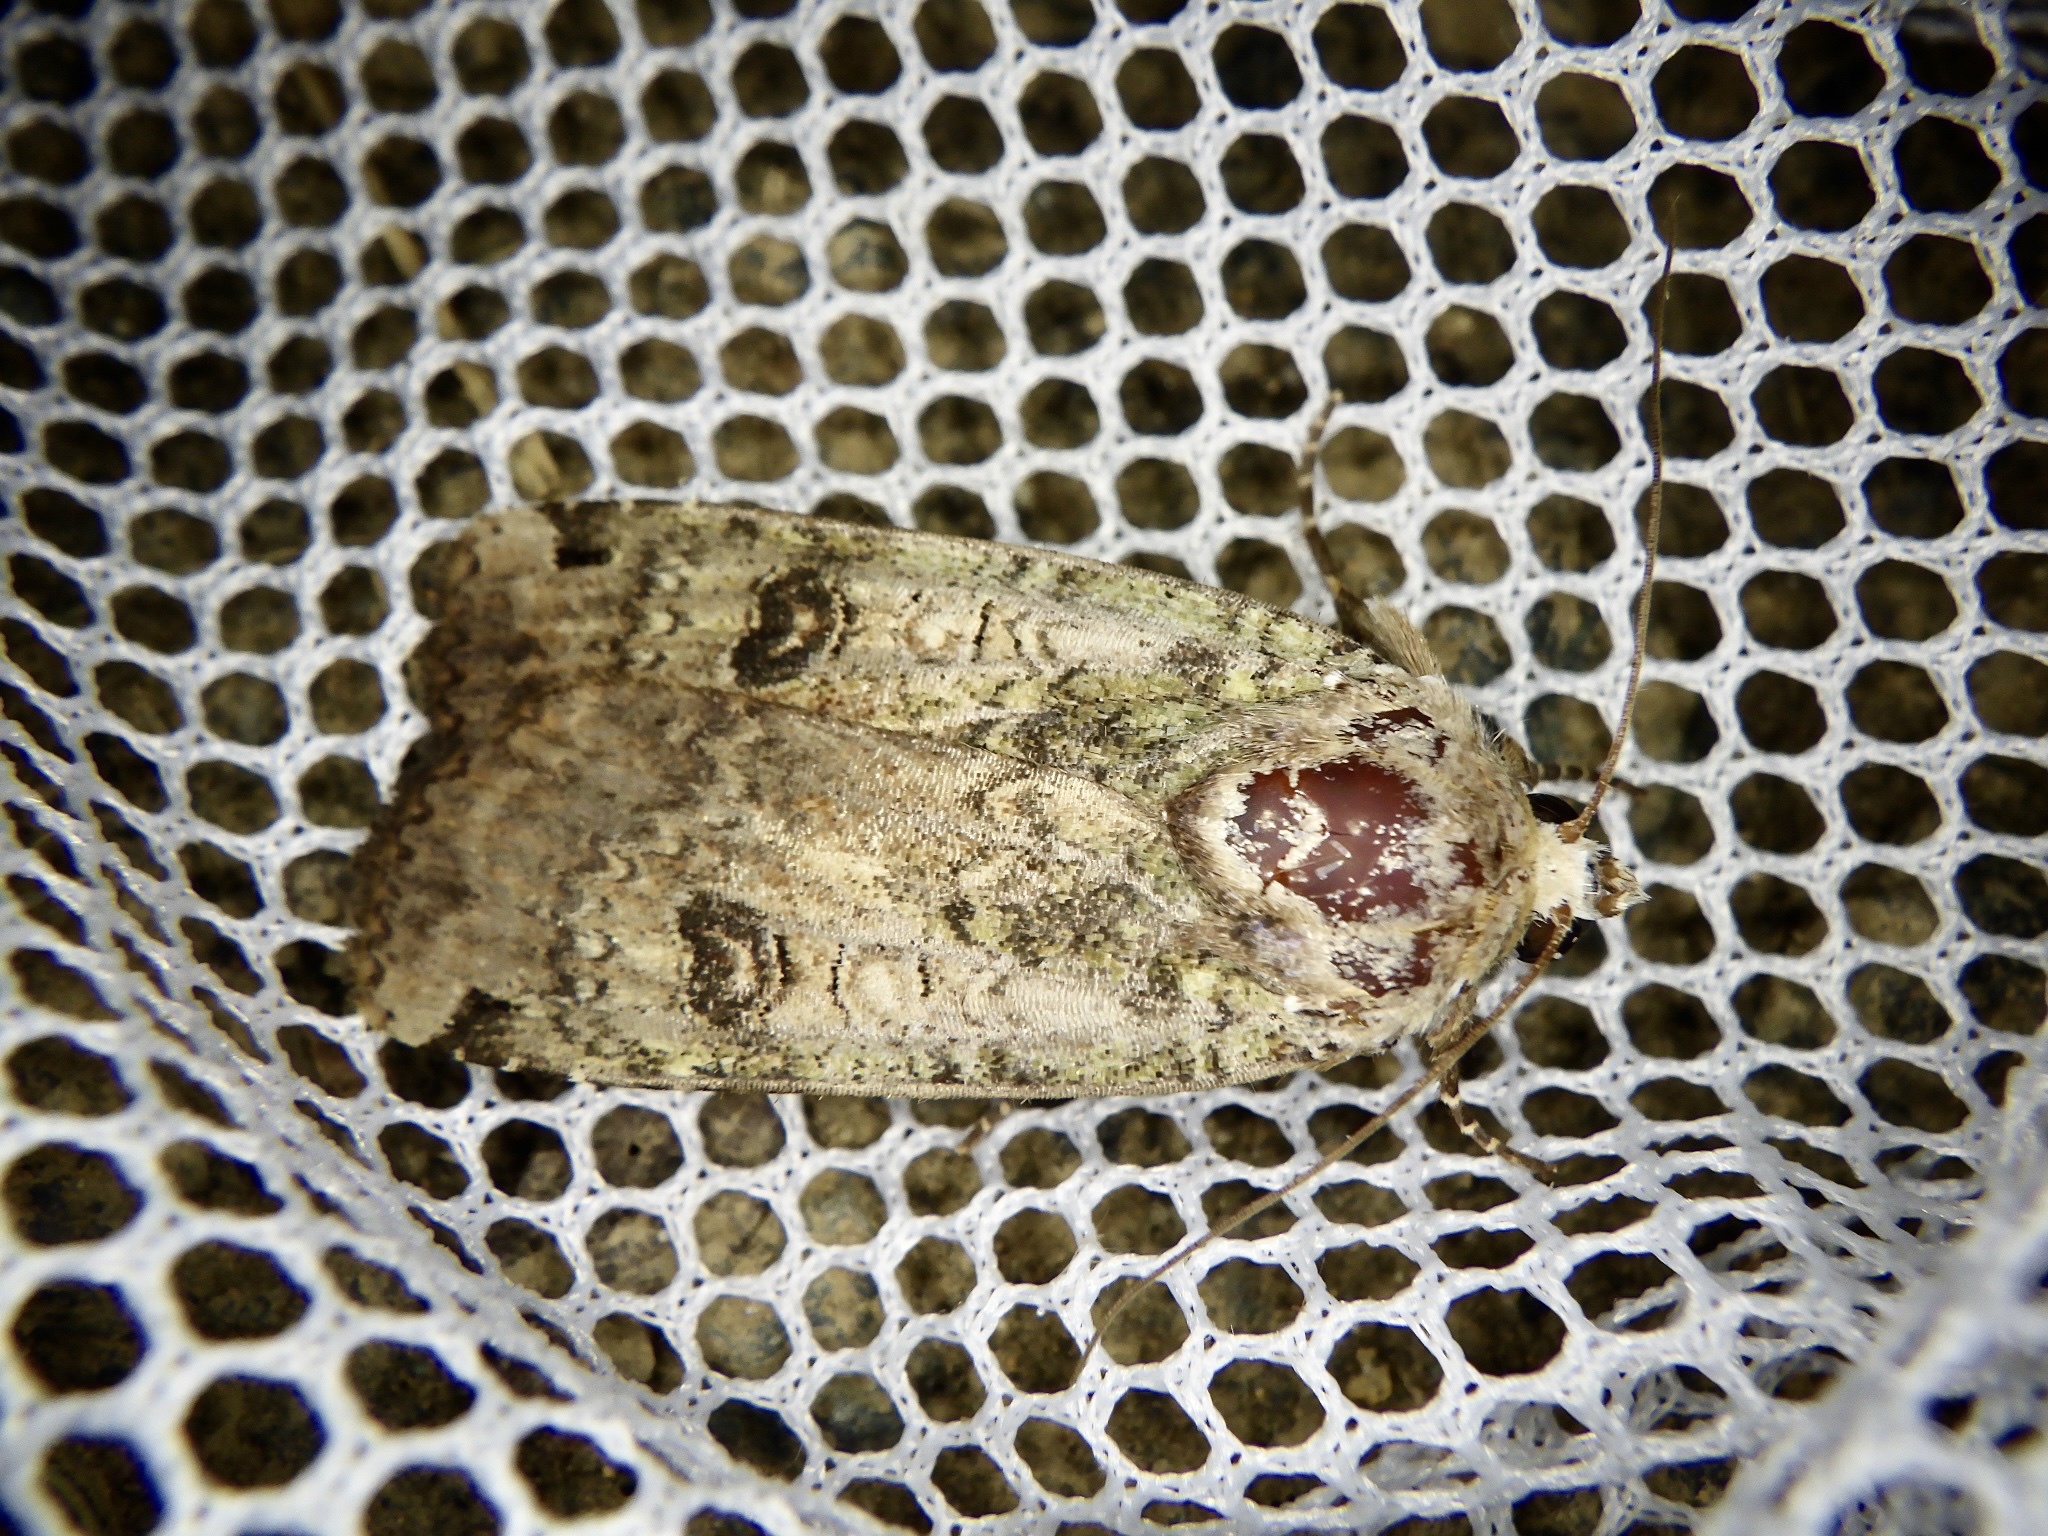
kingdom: Animalia
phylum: Arthropoda
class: Insecta
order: Lepidoptera
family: Noctuidae
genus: Xestia
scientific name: Xestia semiherbida
